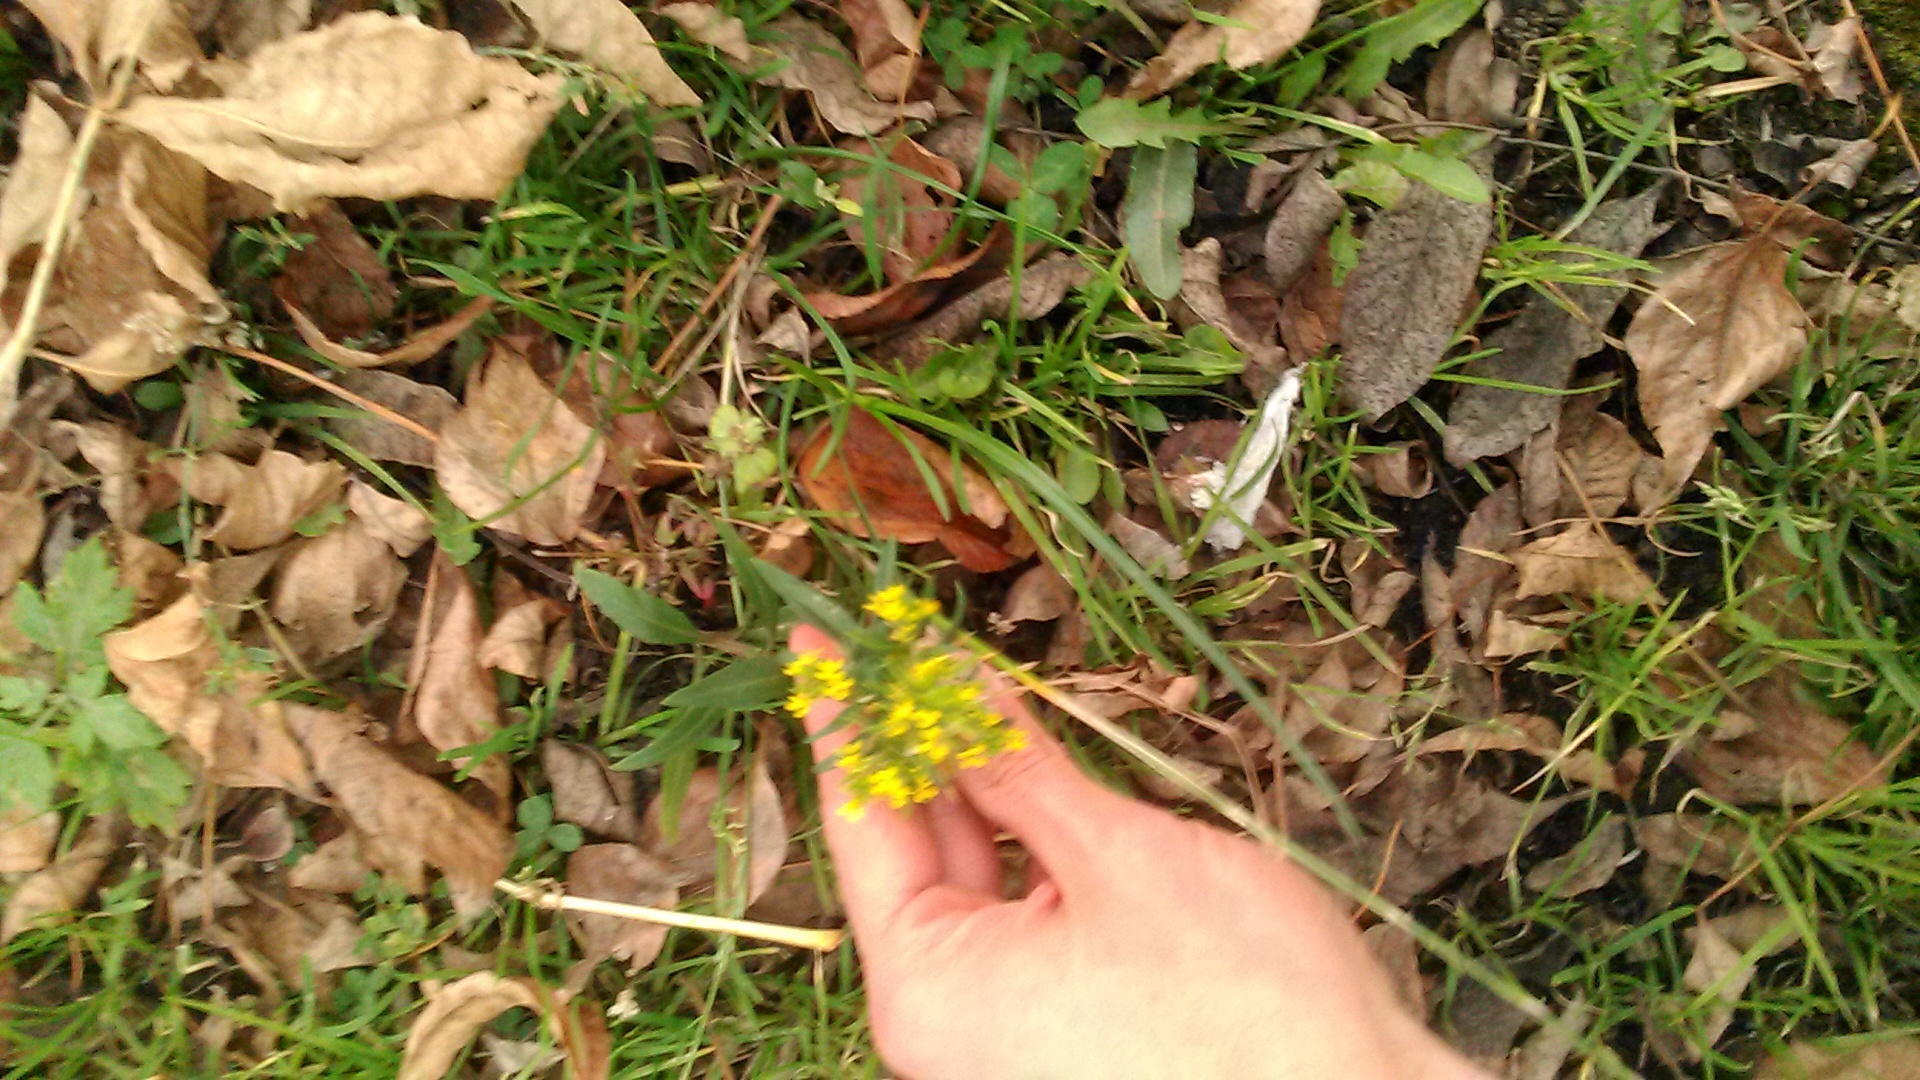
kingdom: Plantae
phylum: Tracheophyta
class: Magnoliopsida
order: Brassicales
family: Brassicaceae
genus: Erysimum
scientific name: Erysimum cheiranthoides
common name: Treacle mustard
